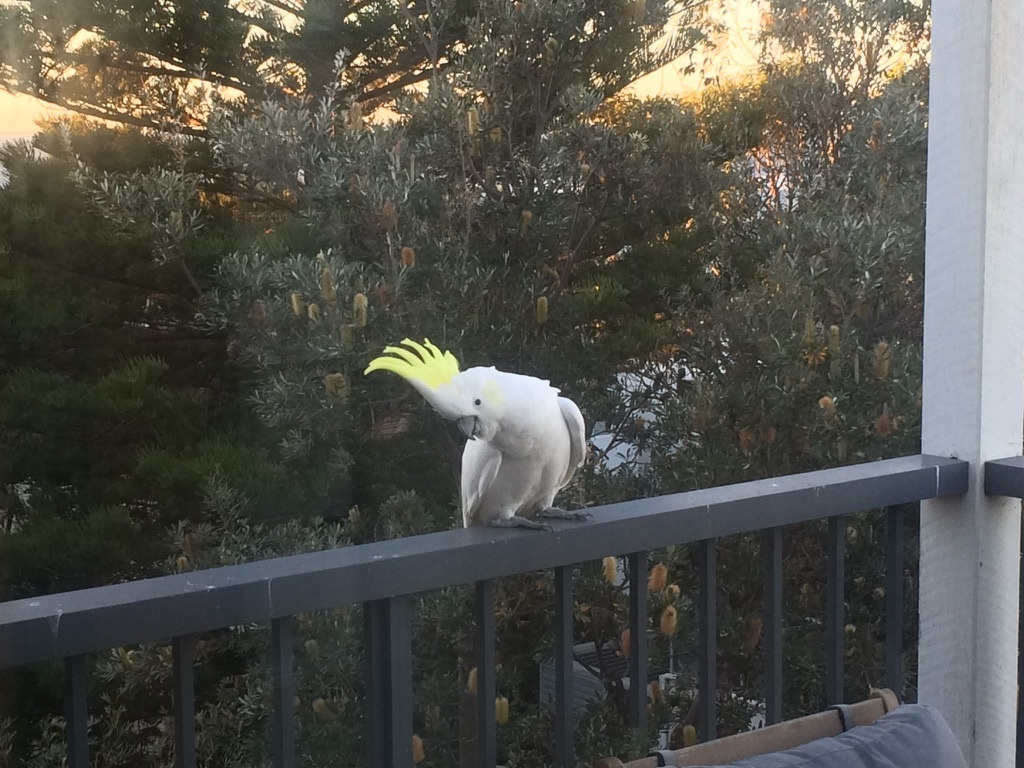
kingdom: Animalia
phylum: Chordata
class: Aves
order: Psittaciformes
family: Psittacidae
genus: Cacatua
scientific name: Cacatua galerita
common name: Sulphur-crested cockatoo
